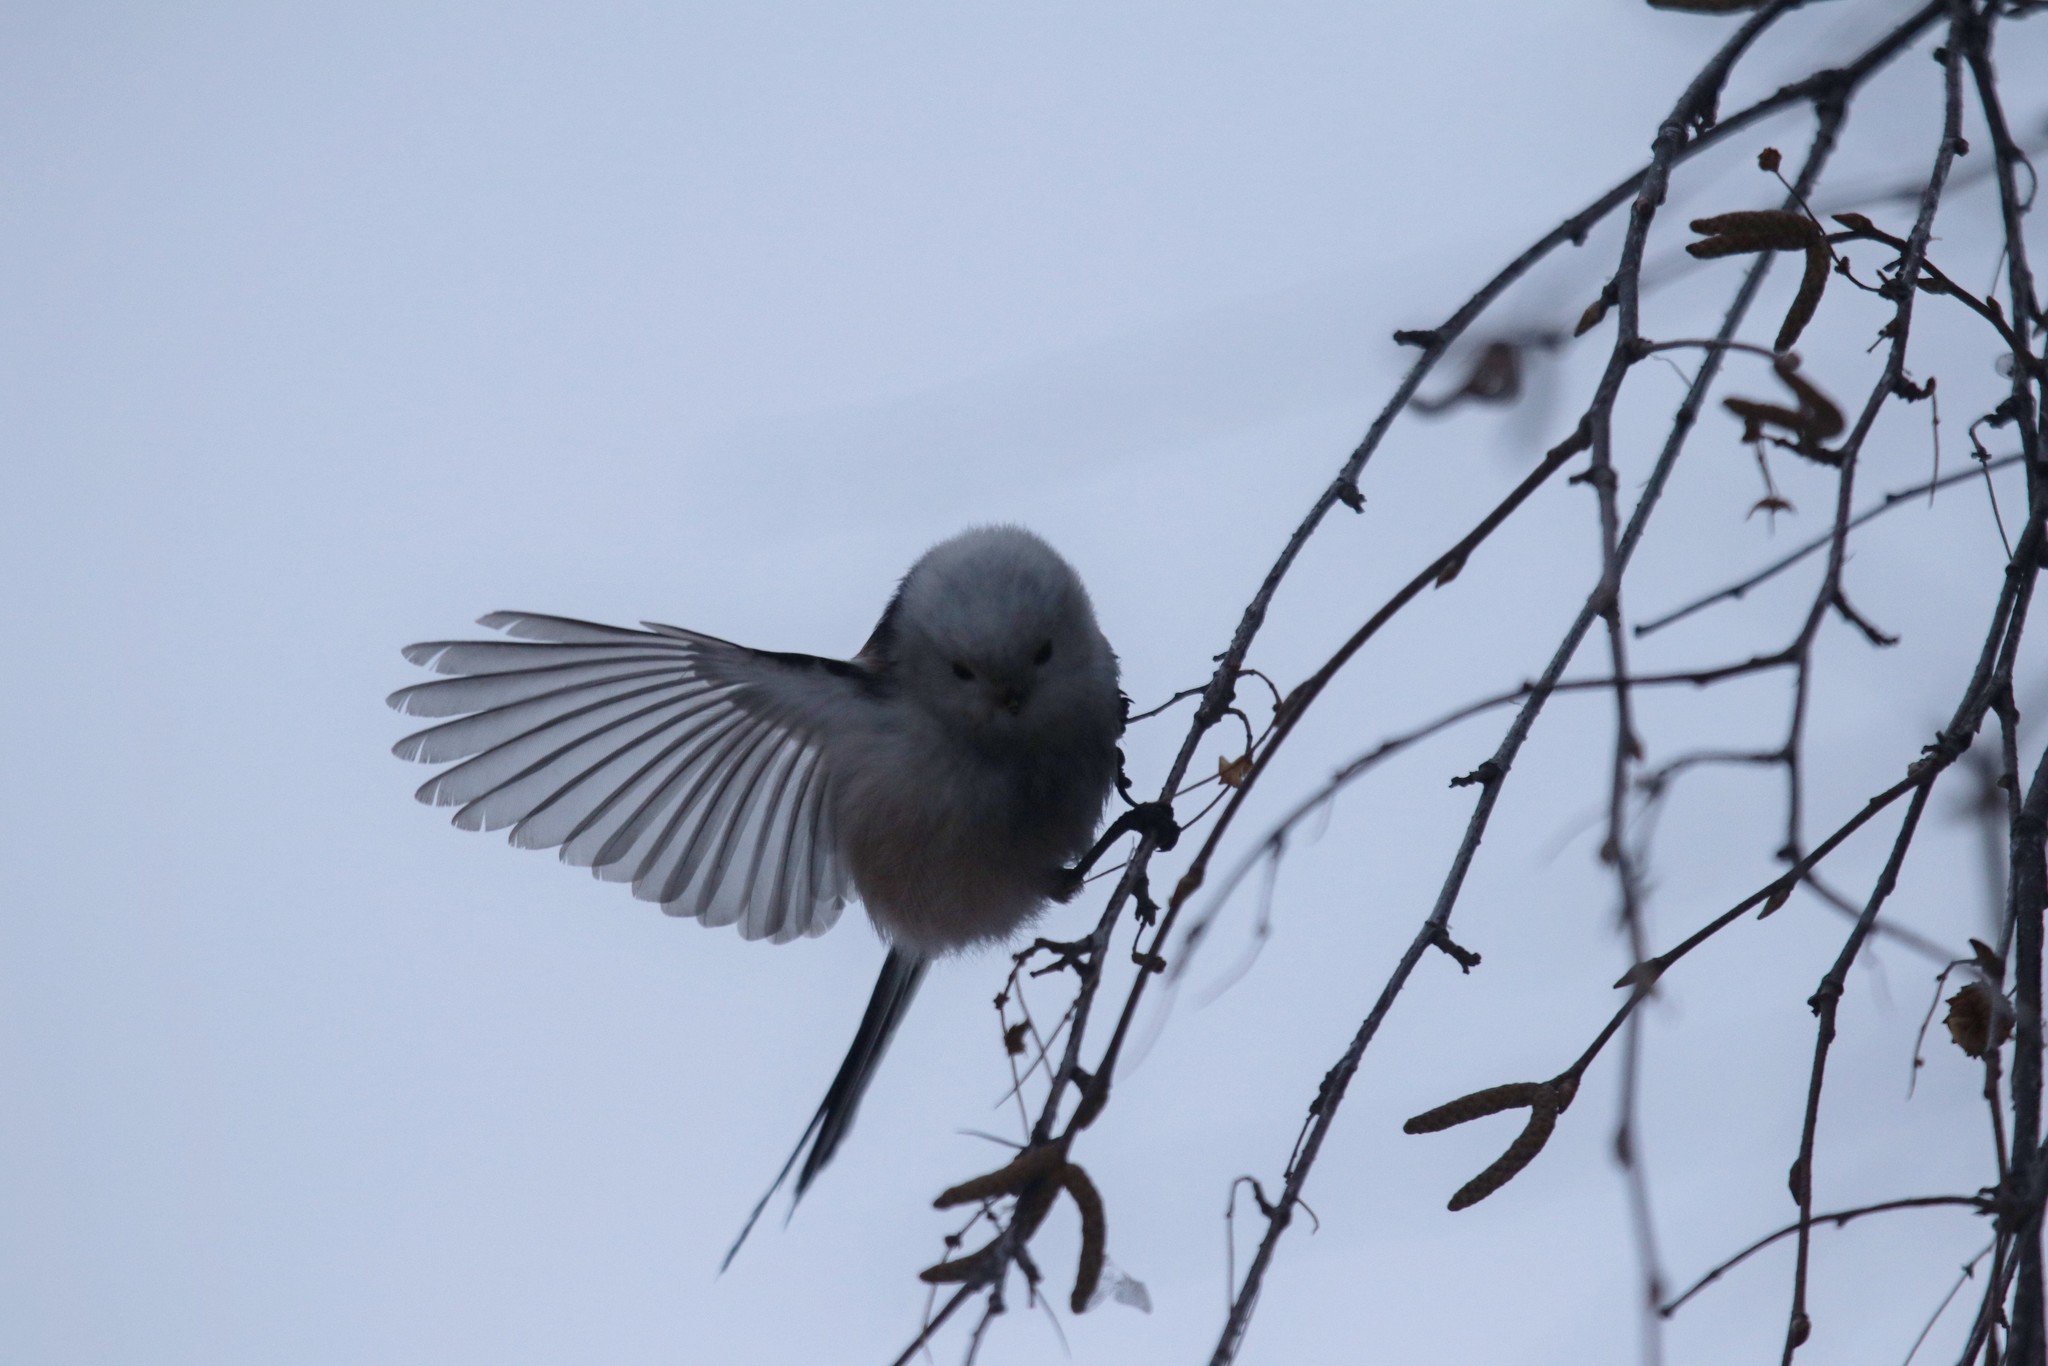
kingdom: Animalia
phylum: Chordata
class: Aves
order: Passeriformes
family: Aegithalidae
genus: Aegithalos
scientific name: Aegithalos caudatus
